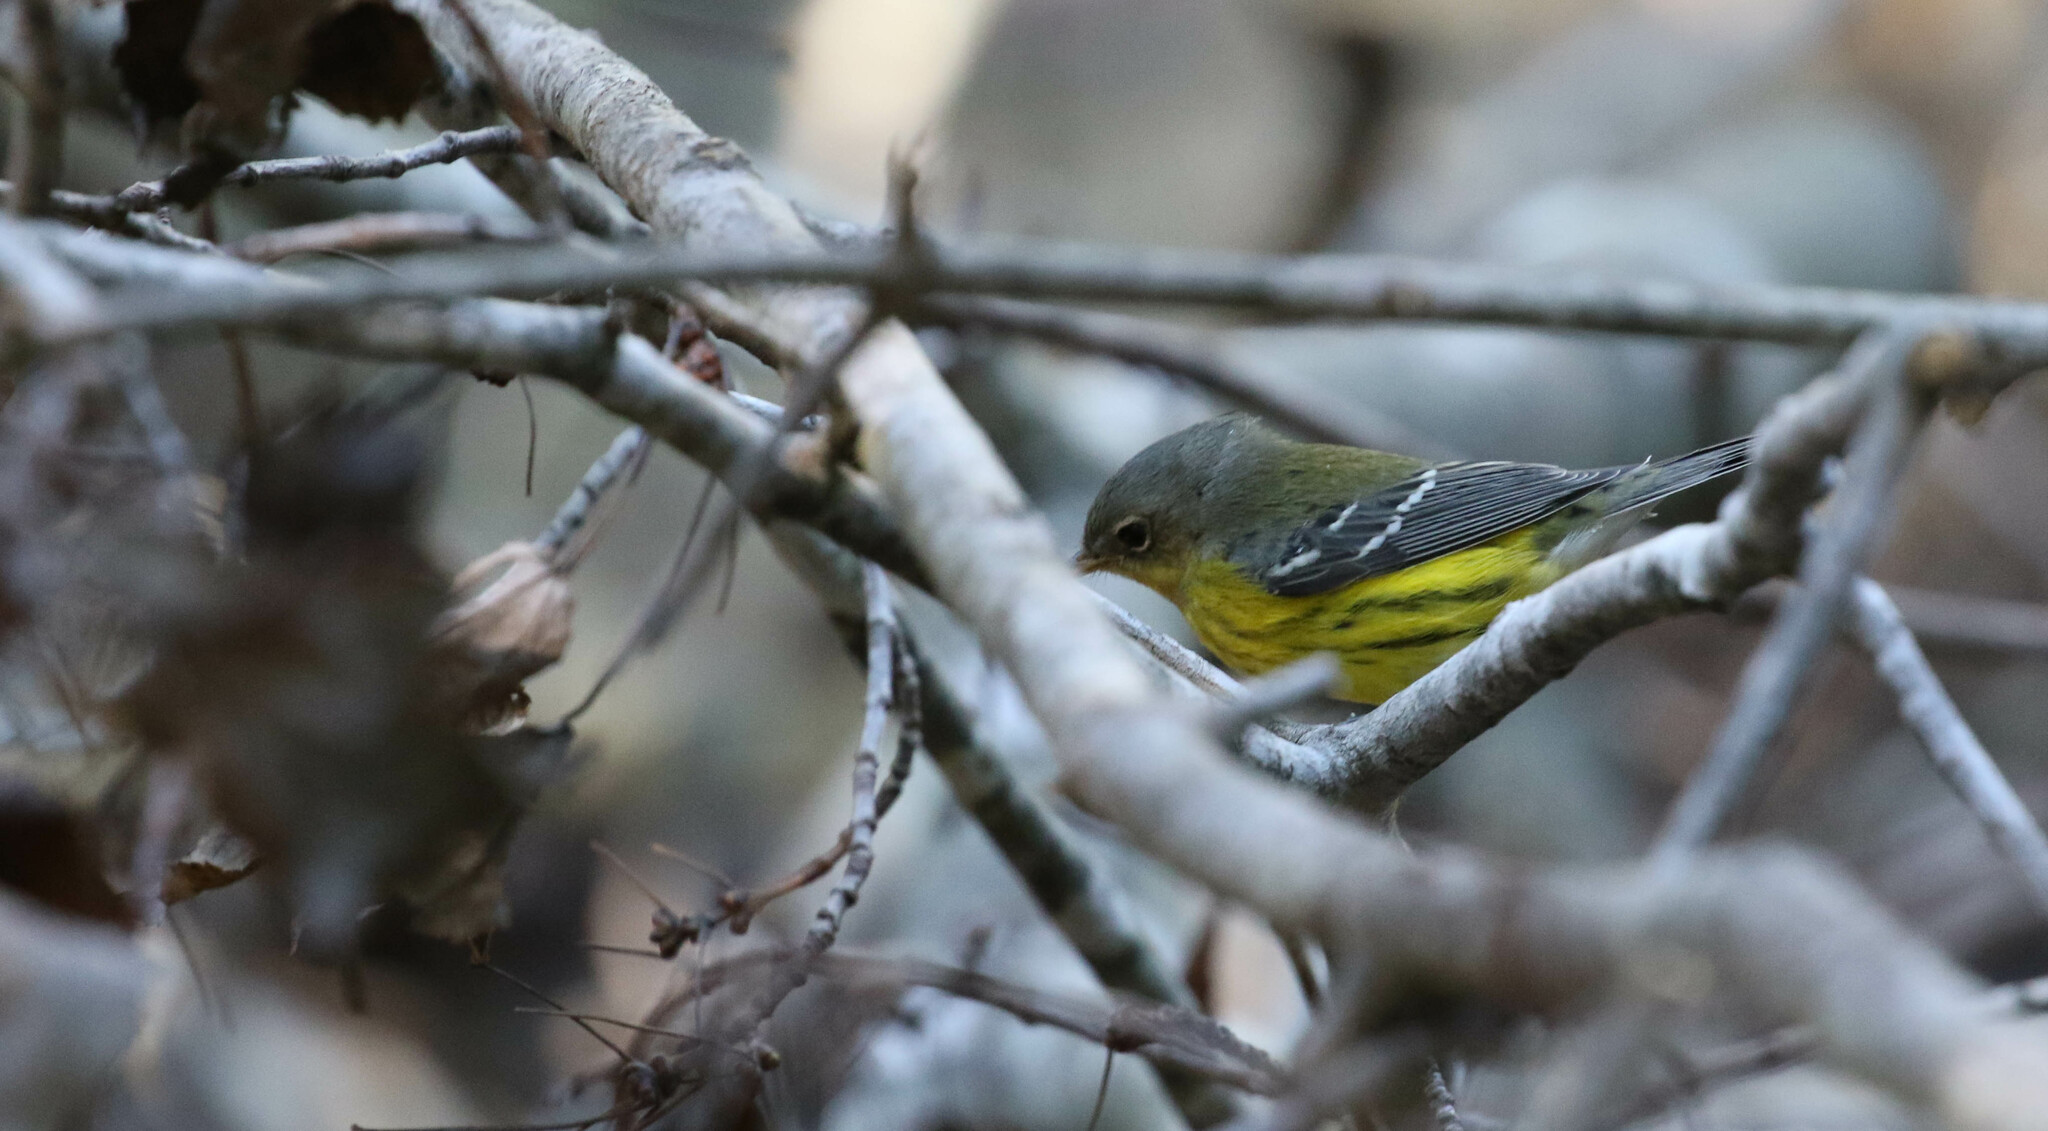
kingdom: Animalia
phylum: Chordata
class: Aves
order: Passeriformes
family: Parulidae
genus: Setophaga
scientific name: Setophaga magnolia
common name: Magnolia warbler
